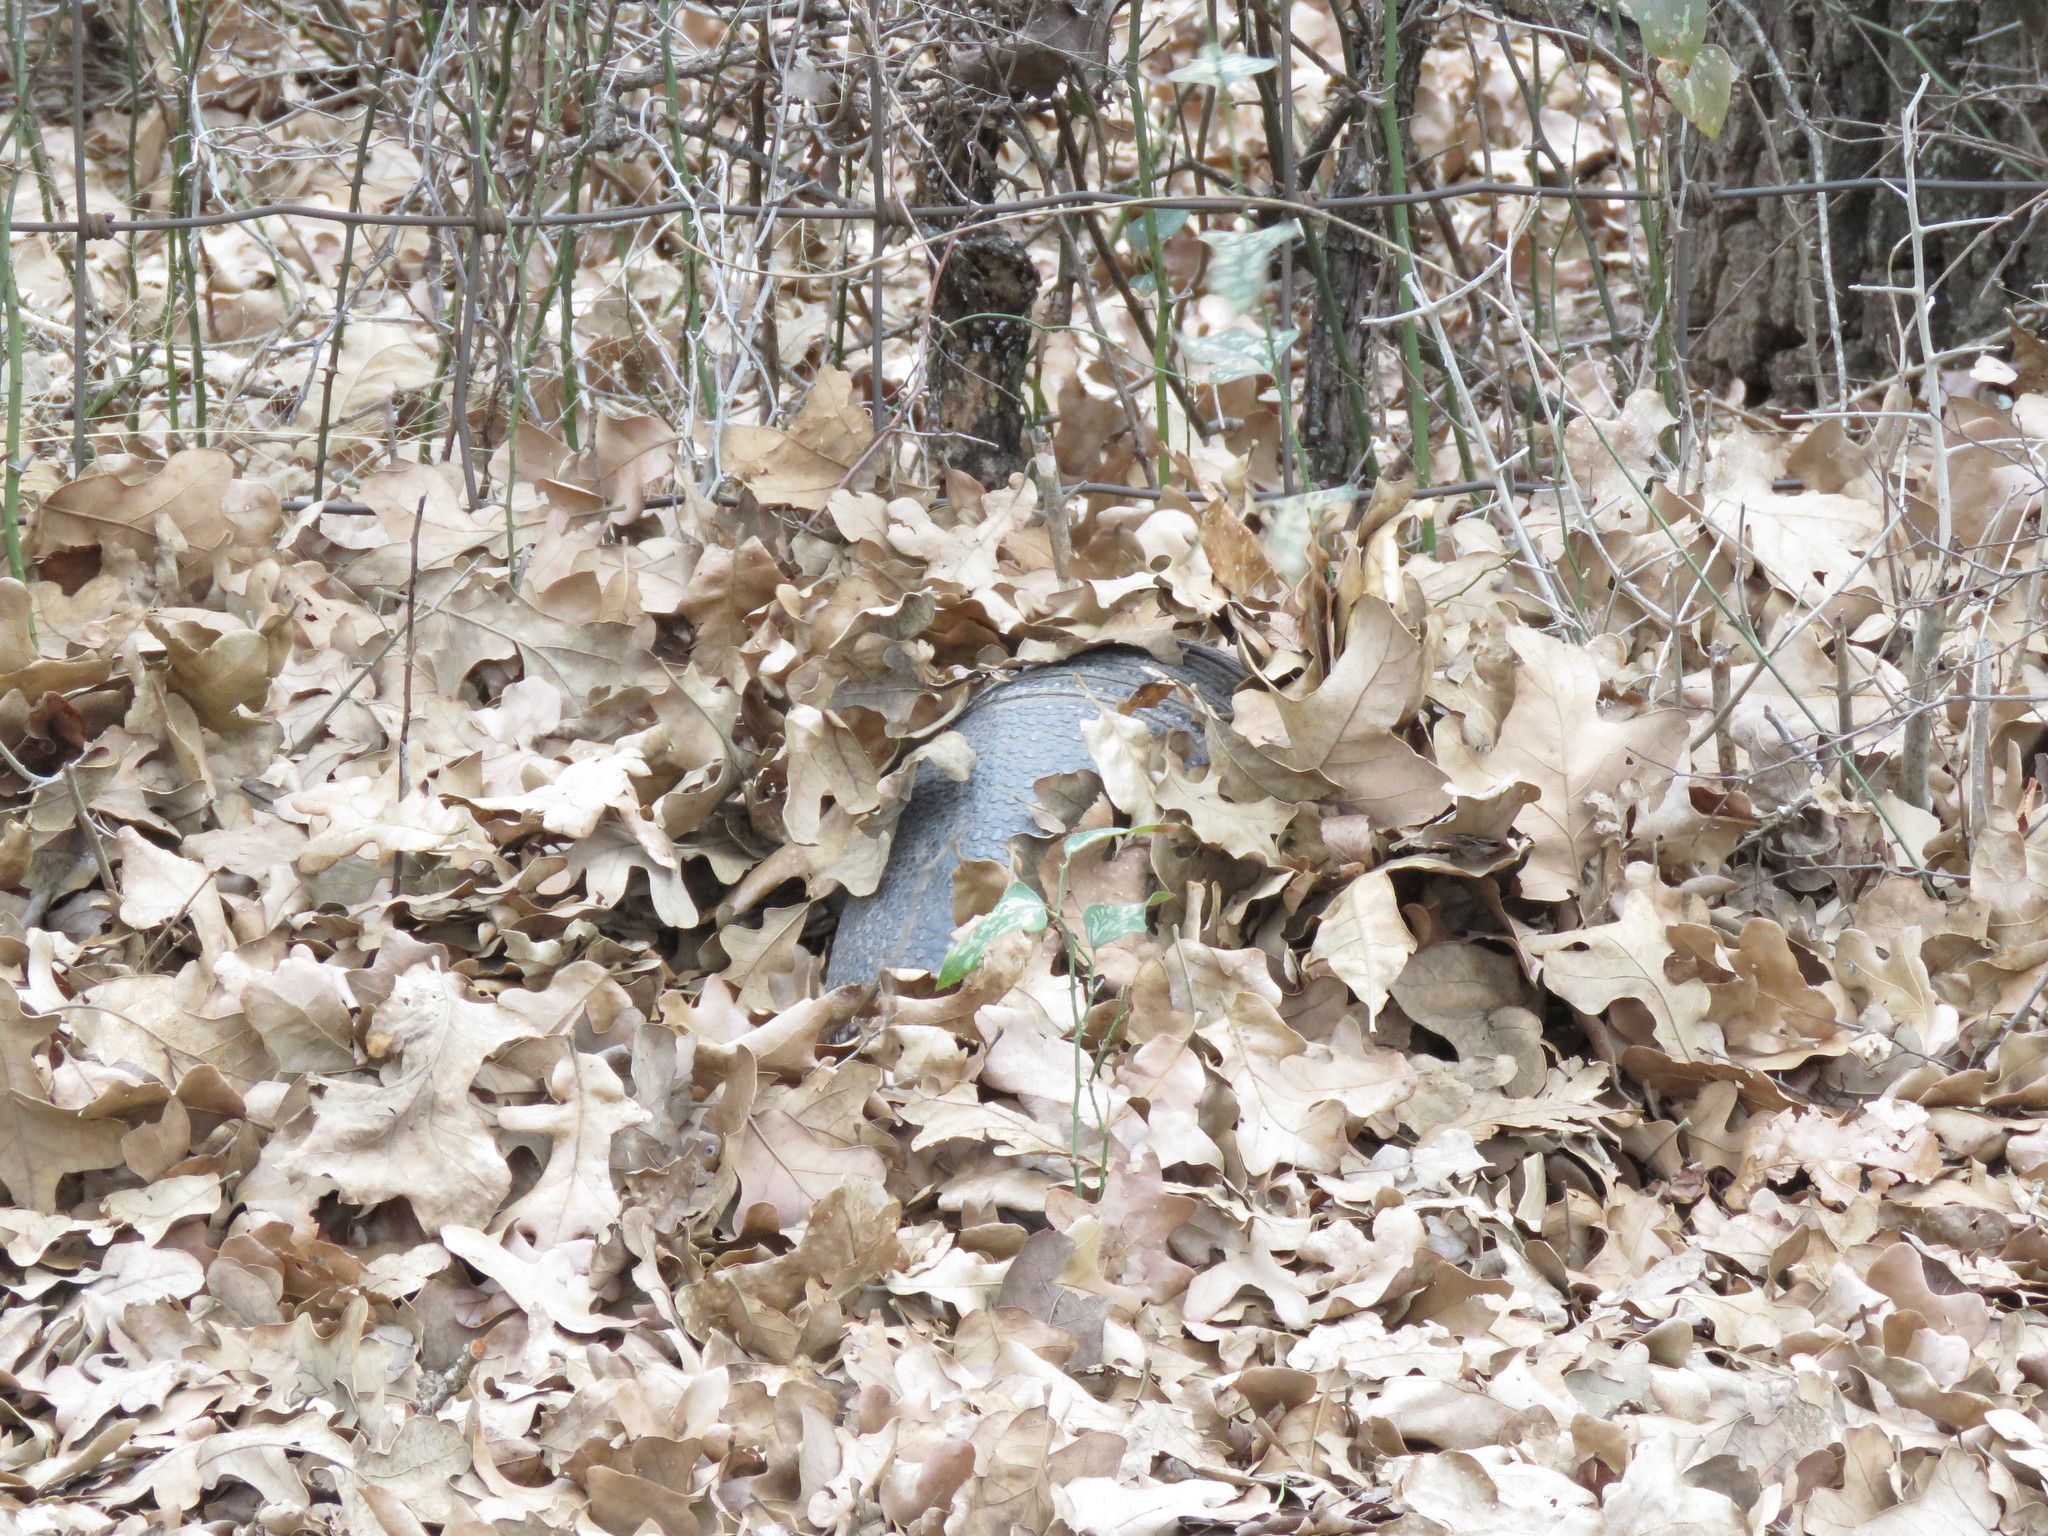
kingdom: Animalia
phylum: Chordata
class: Mammalia
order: Cingulata
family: Dasypodidae
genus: Dasypus
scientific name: Dasypus novemcinctus
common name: Nine-banded armadillo
